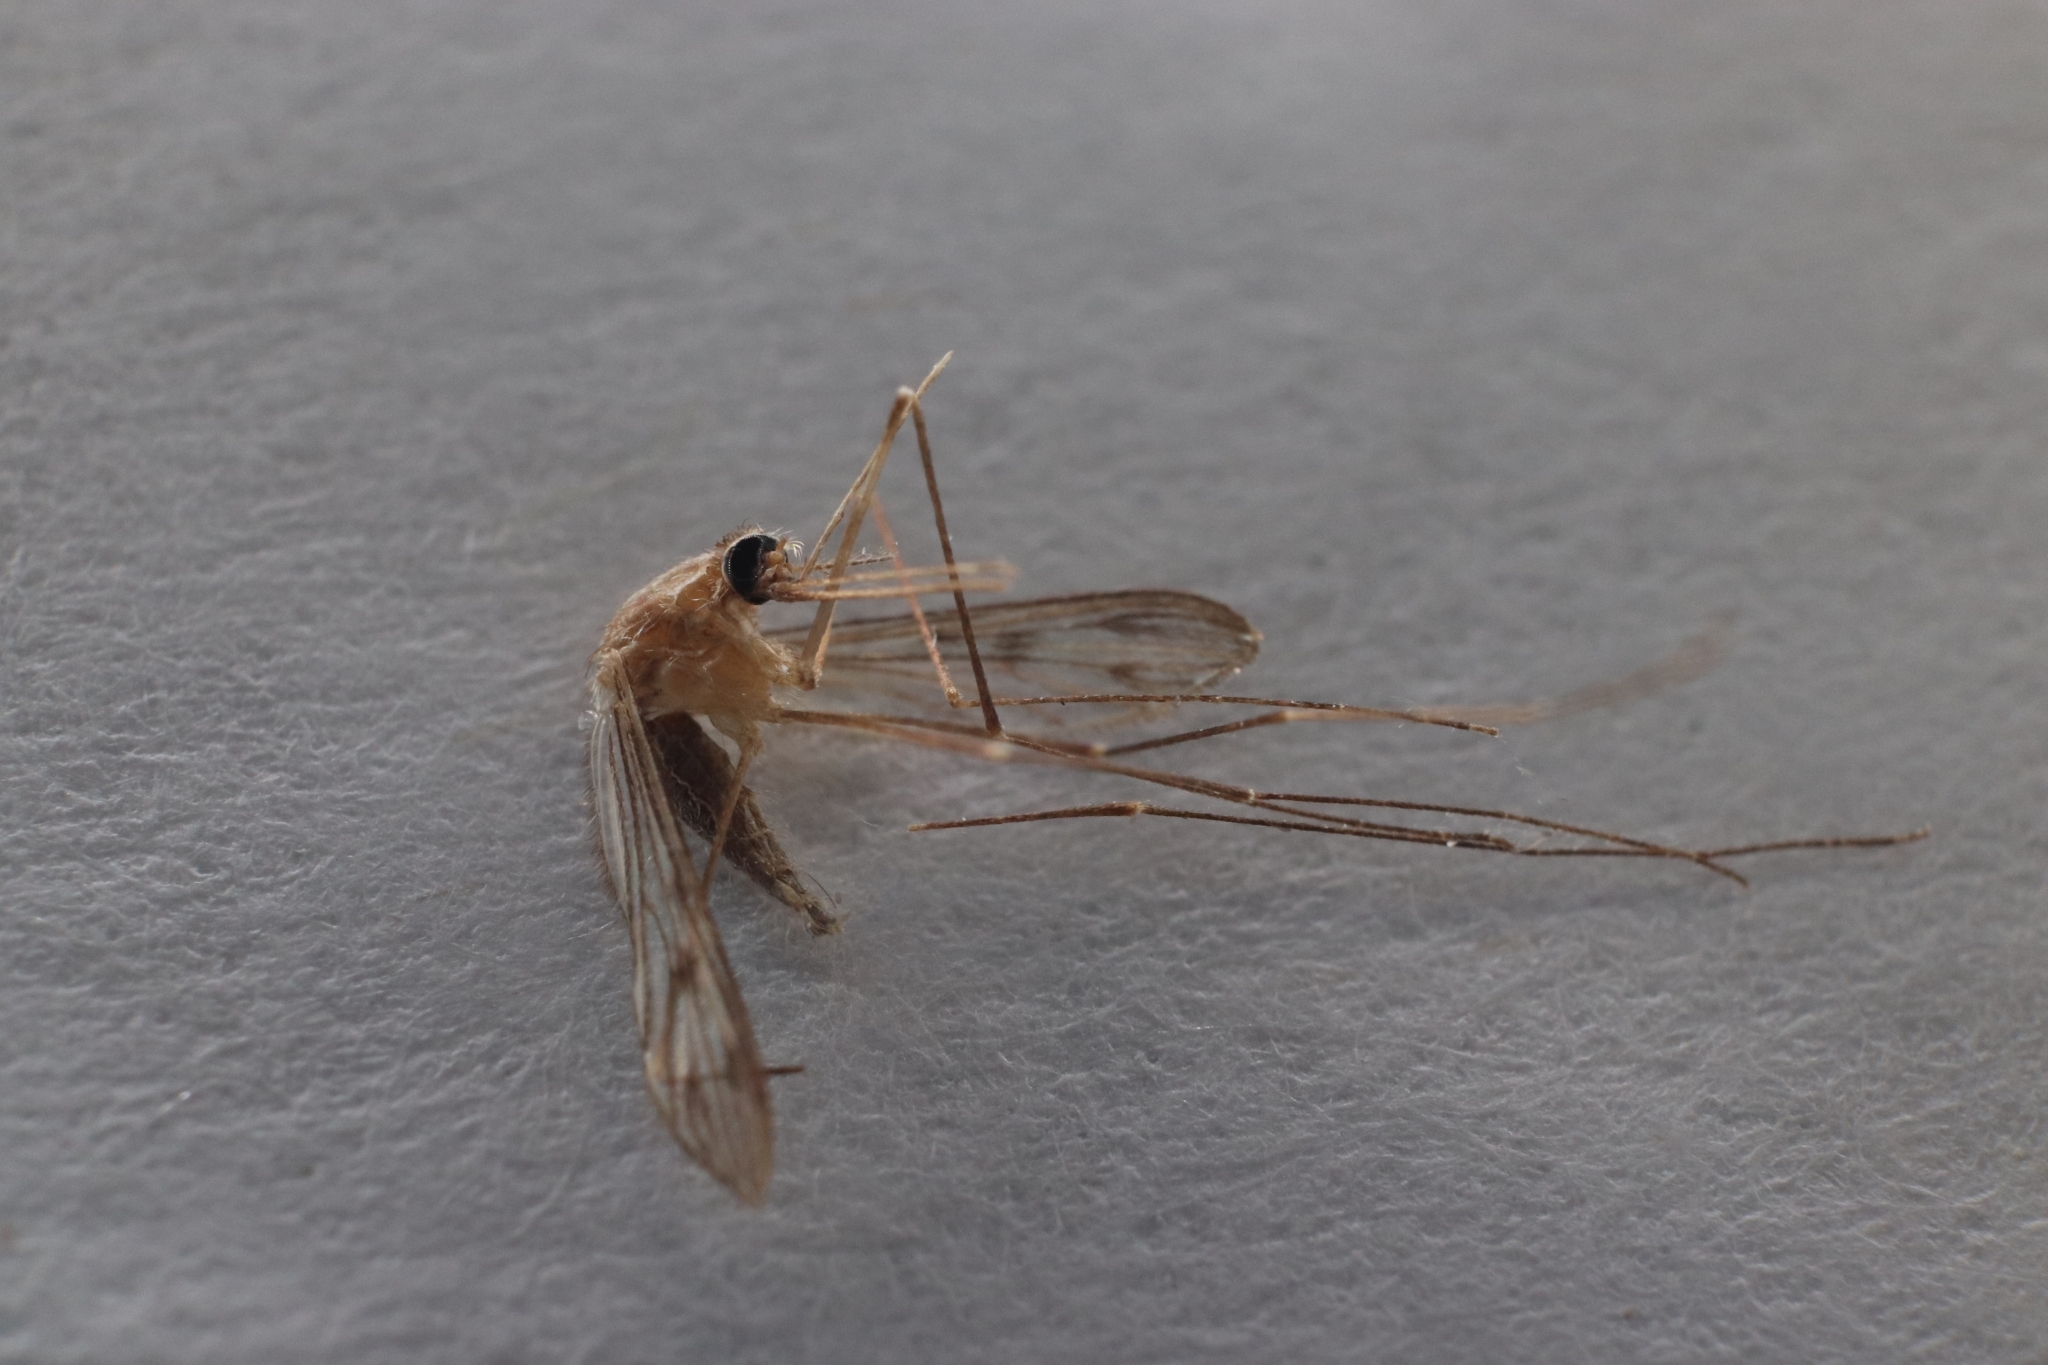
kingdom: Animalia
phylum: Arthropoda
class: Insecta
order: Diptera
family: Culicidae
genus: Anopheles
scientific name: Anopheles freeborni
